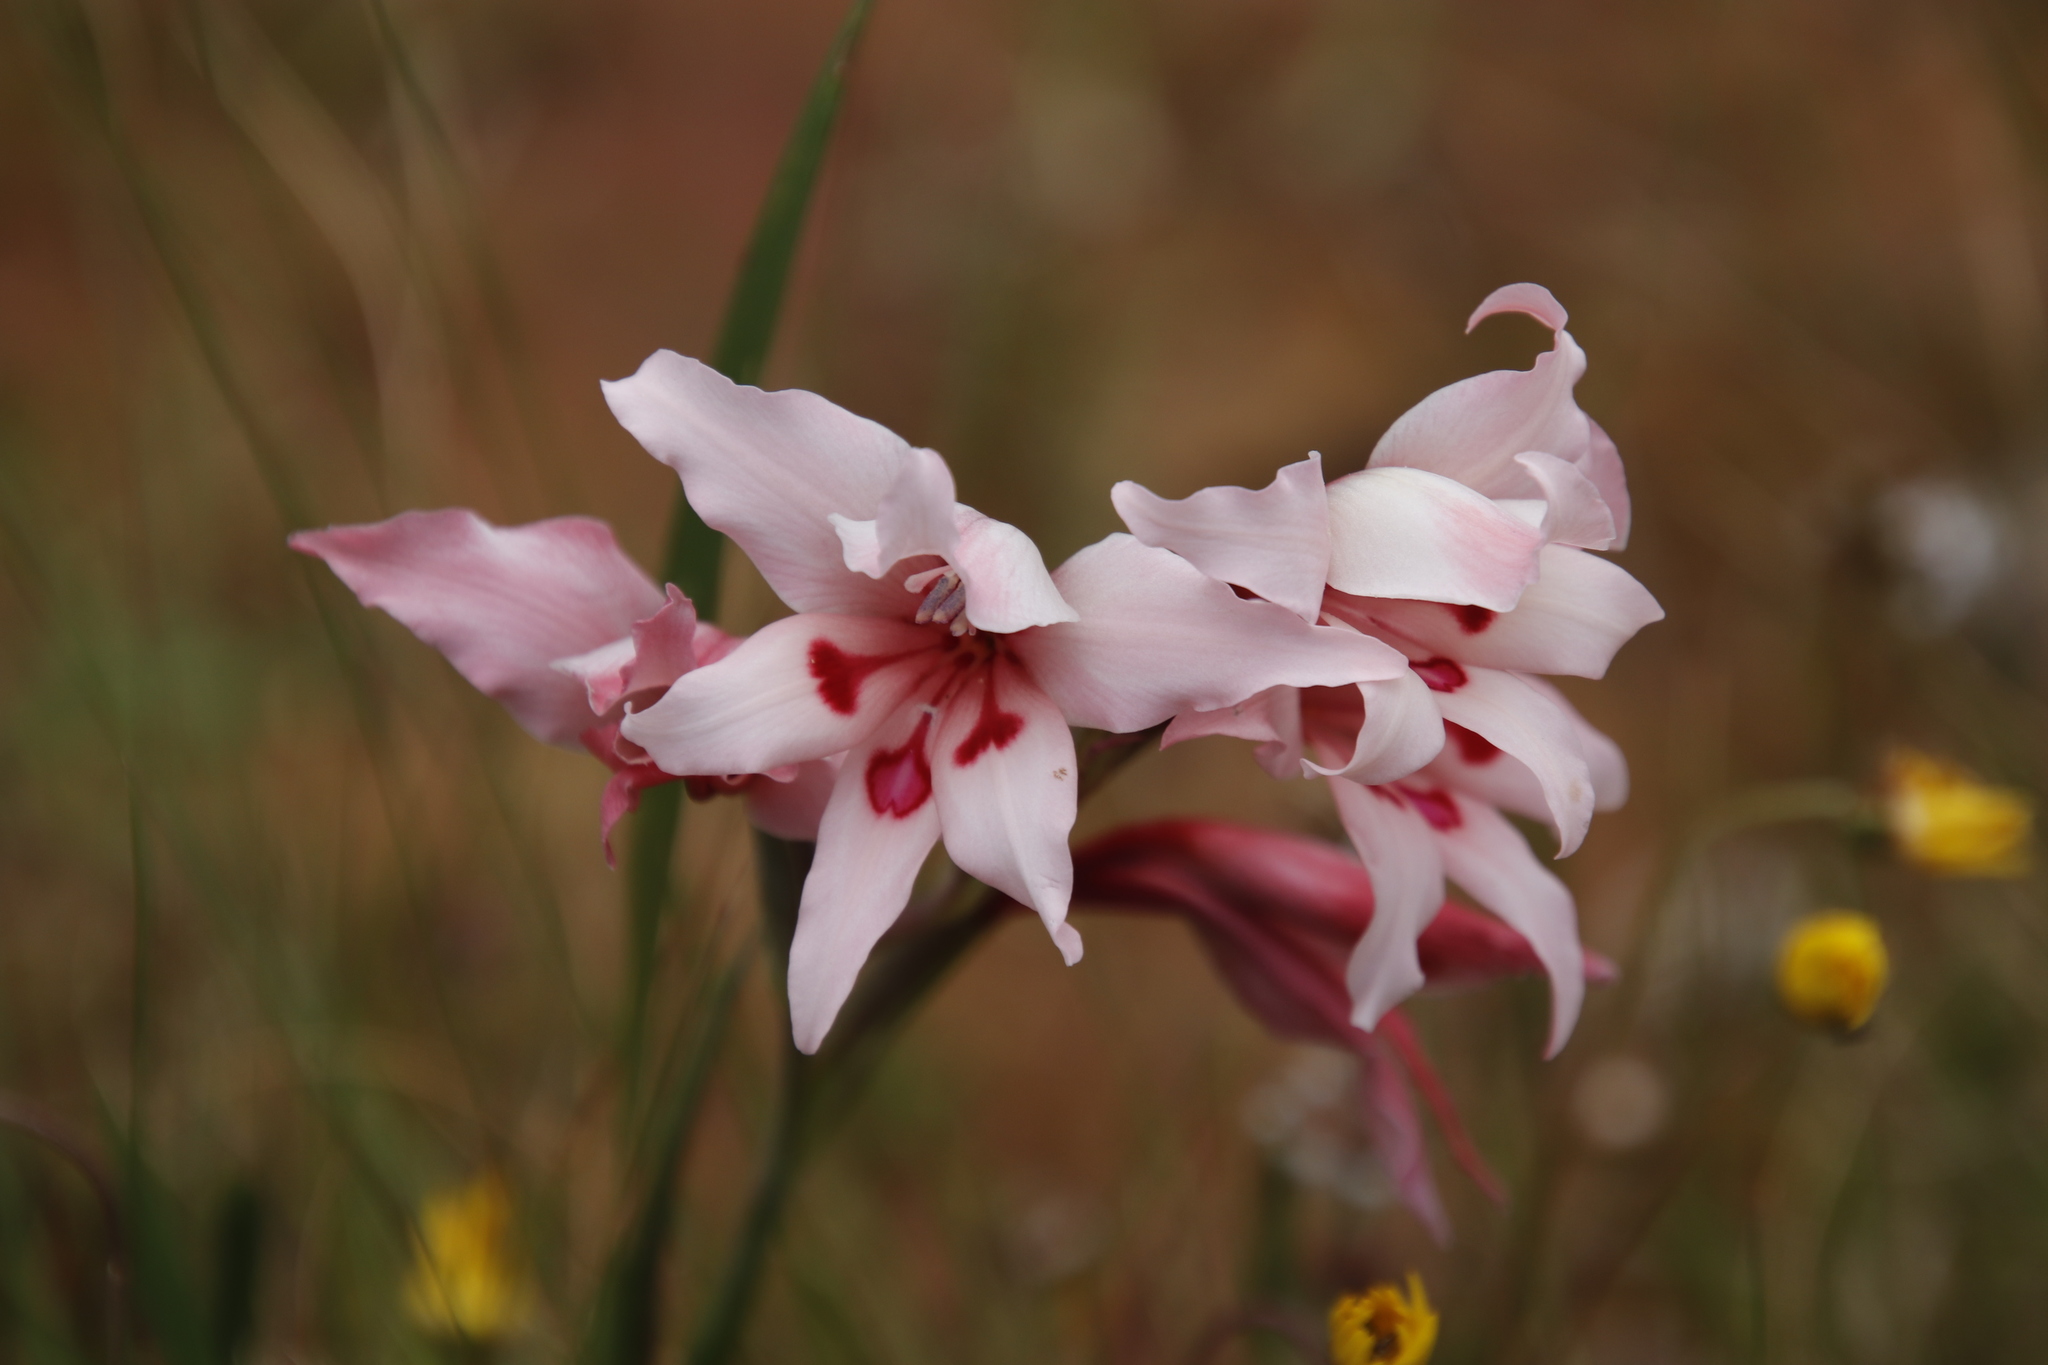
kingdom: Plantae
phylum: Tracheophyta
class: Liliopsida
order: Asparagales
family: Iridaceae
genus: Gladiolus
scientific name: Gladiolus carneus
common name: Painted-lady
